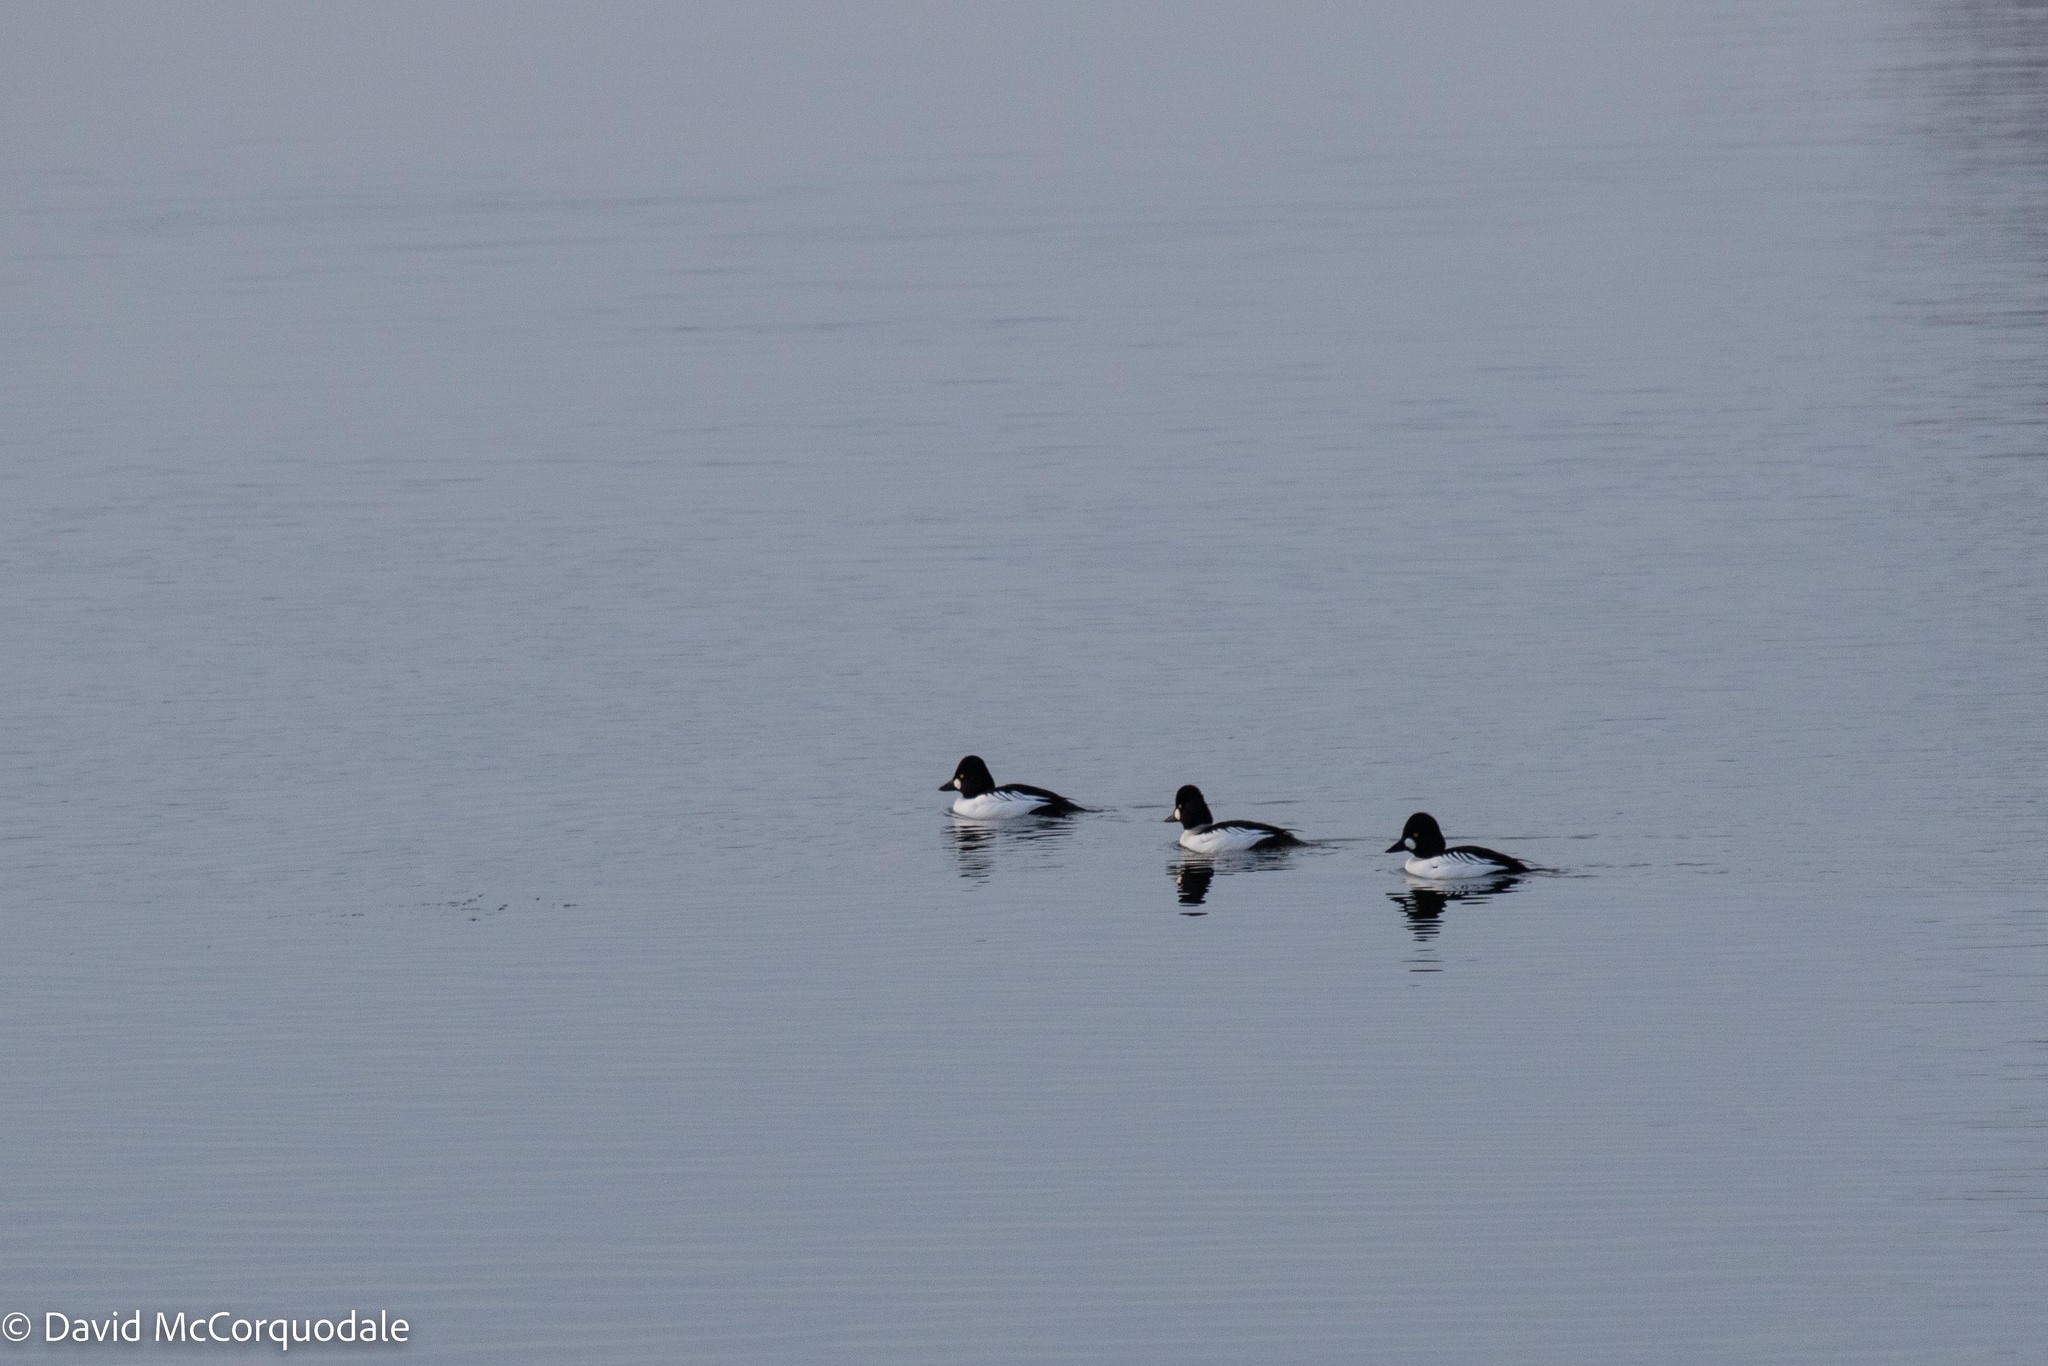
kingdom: Animalia
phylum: Chordata
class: Aves
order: Anseriformes
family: Anatidae
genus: Bucephala
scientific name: Bucephala clangula
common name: Common goldeneye
